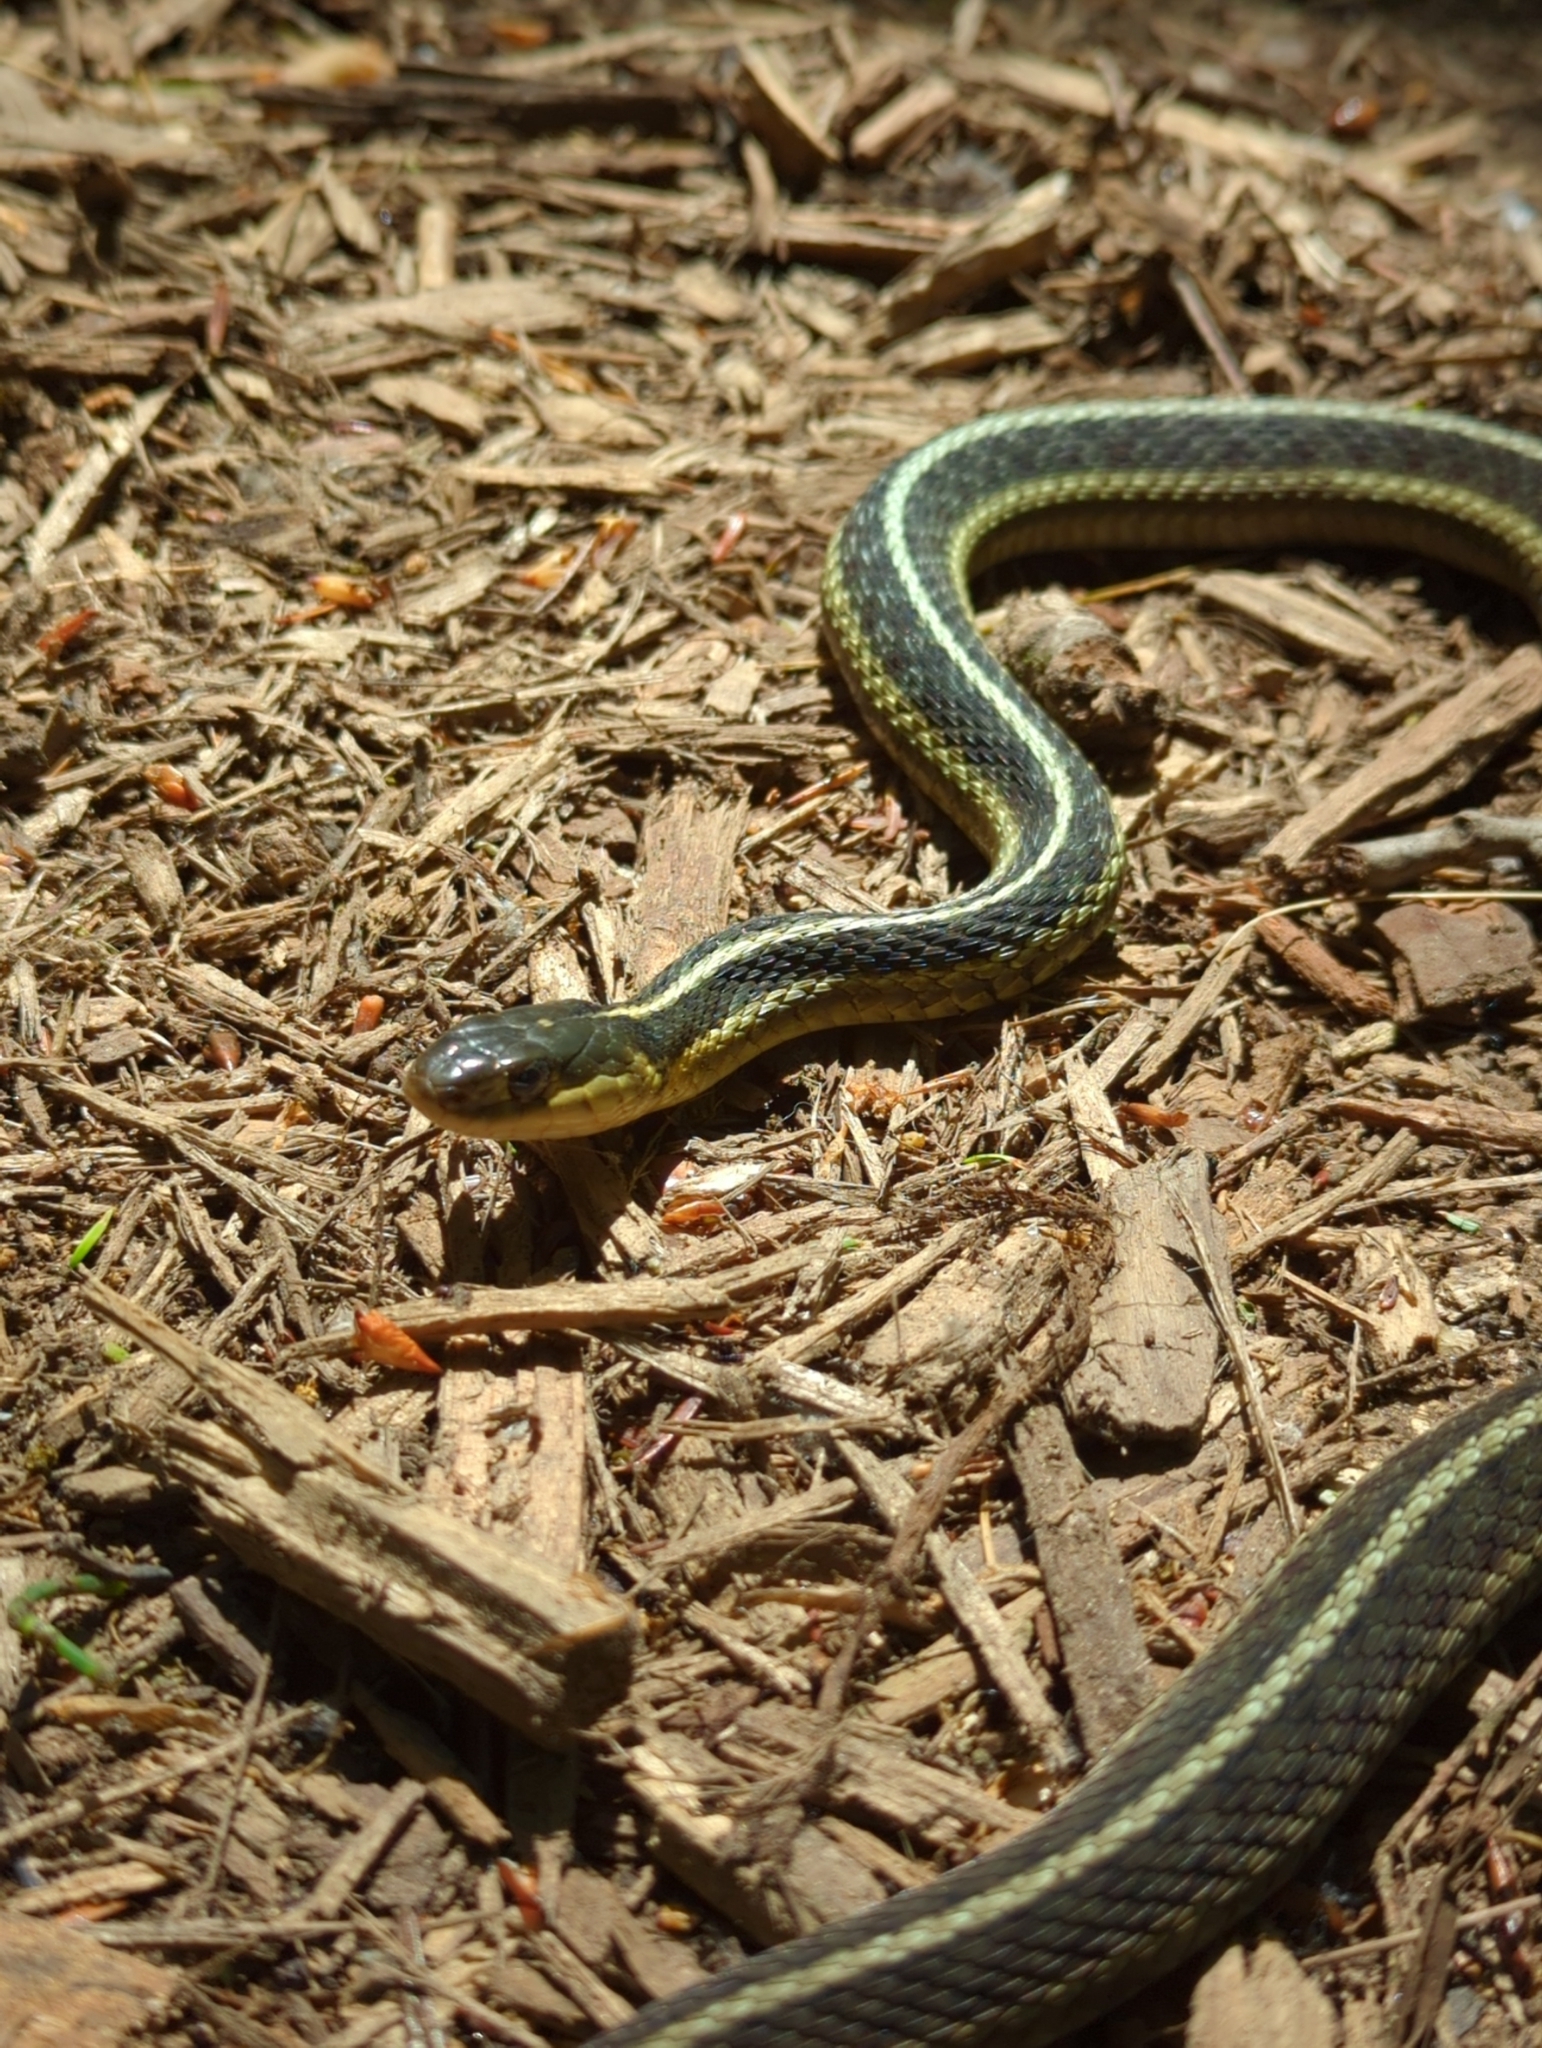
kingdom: Animalia
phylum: Chordata
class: Squamata
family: Colubridae
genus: Thamnophis
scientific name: Thamnophis sirtalis
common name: Common garter snake
